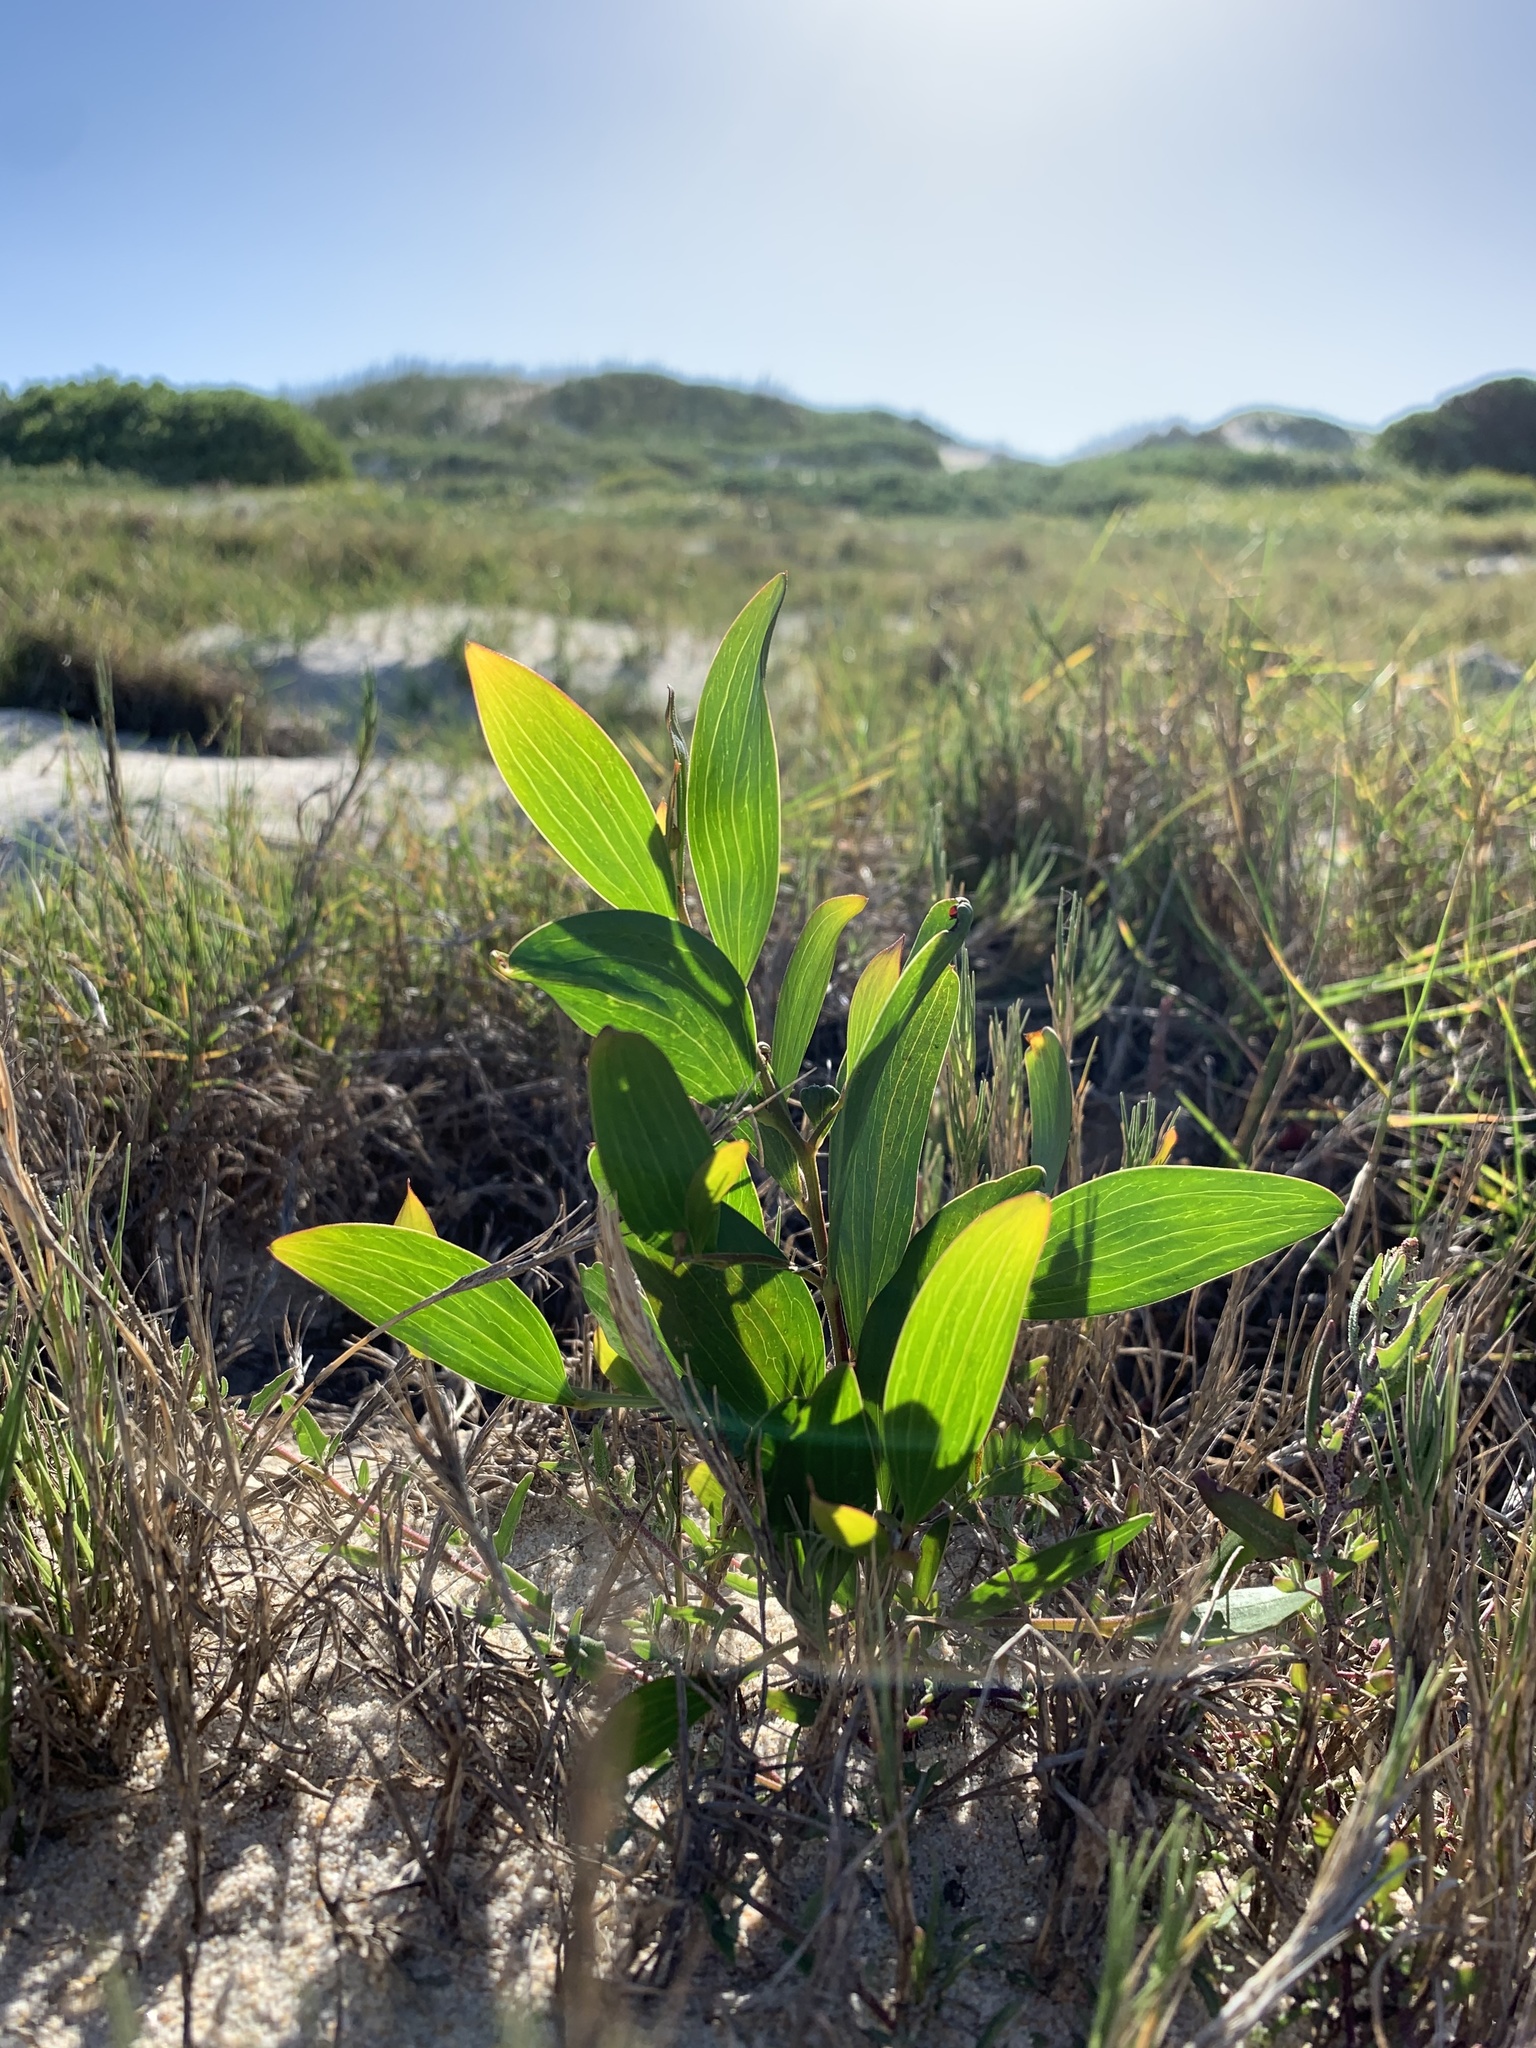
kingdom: Plantae
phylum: Tracheophyta
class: Magnoliopsida
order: Fabales
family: Fabaceae
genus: Acacia
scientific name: Acacia cyclops
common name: Coastal wattle
